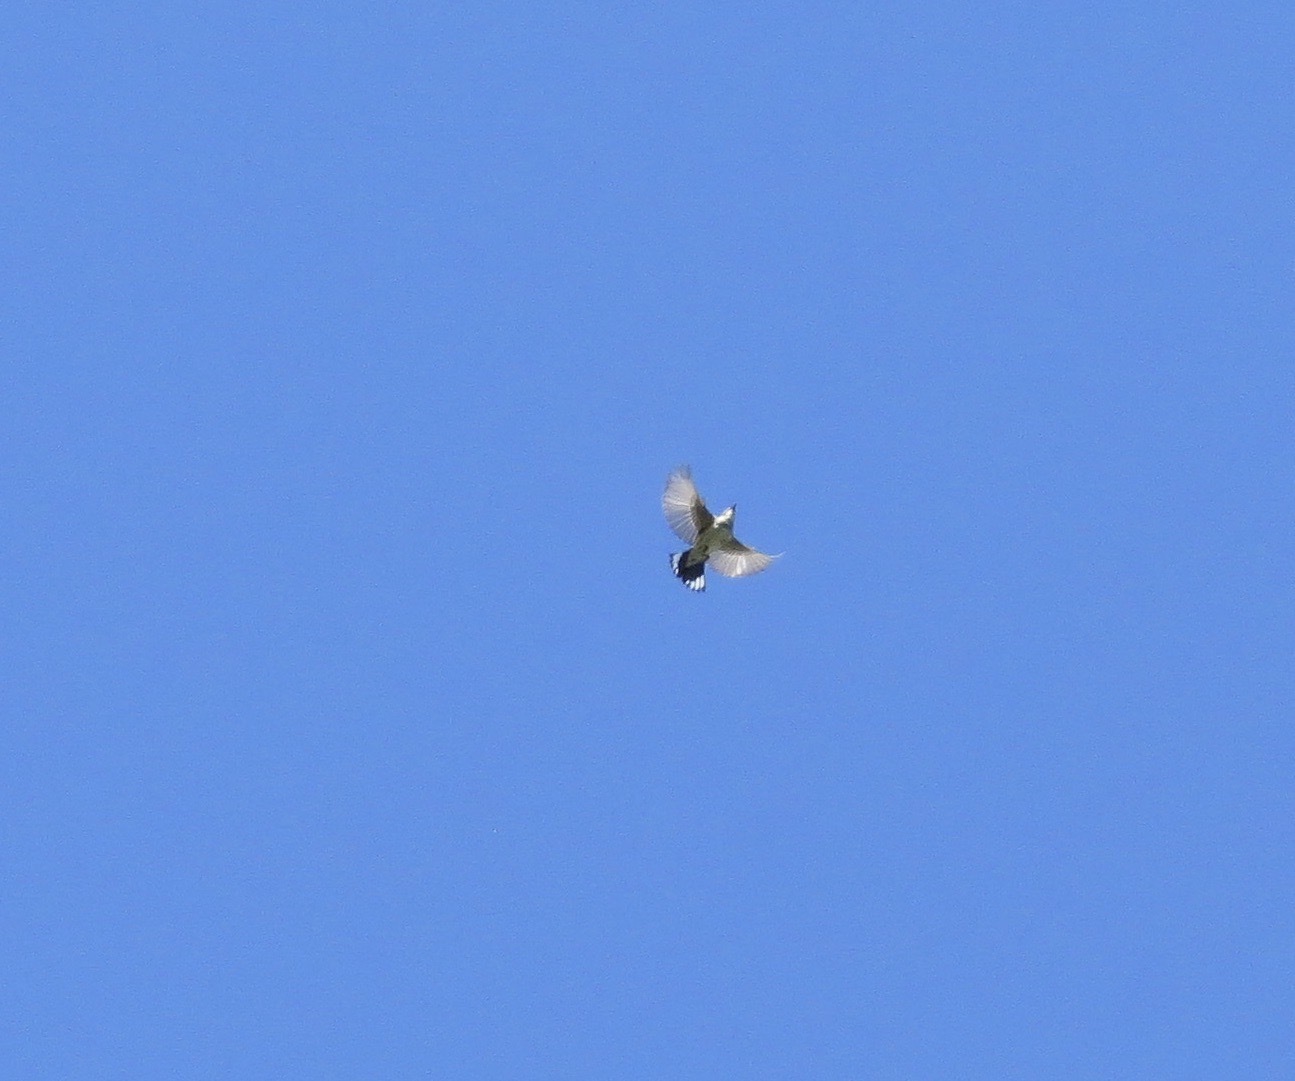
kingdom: Animalia
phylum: Chordata
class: Aves
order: Passeriformes
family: Parulidae
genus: Setophaga
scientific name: Setophaga coronata
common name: Myrtle warbler
